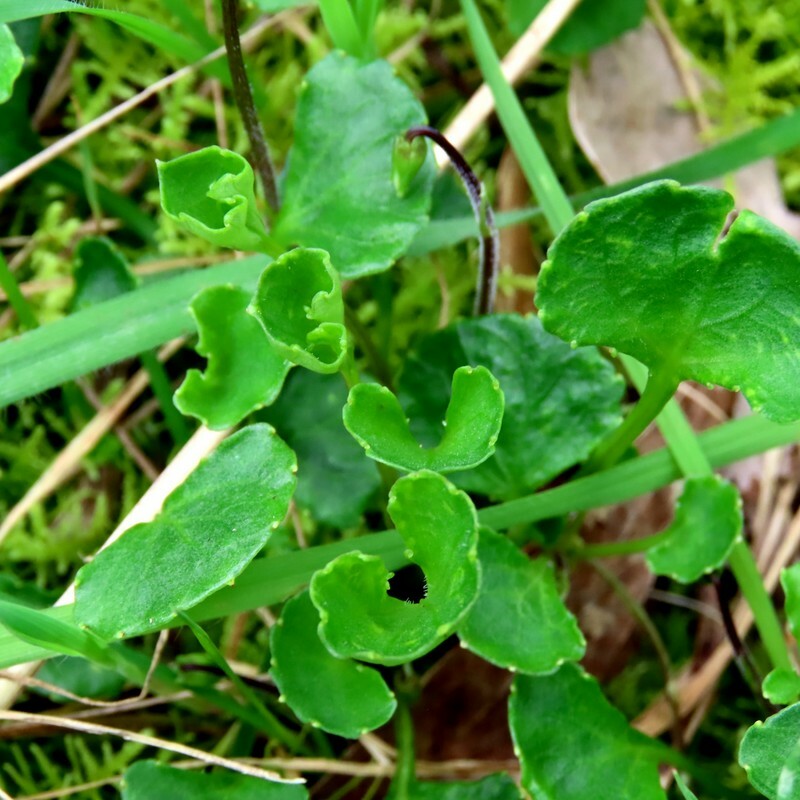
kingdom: Plantae
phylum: Tracheophyta
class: Magnoliopsida
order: Malpighiales
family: Violaceae
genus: Viola
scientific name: Viola hederacea
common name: Australian violet
